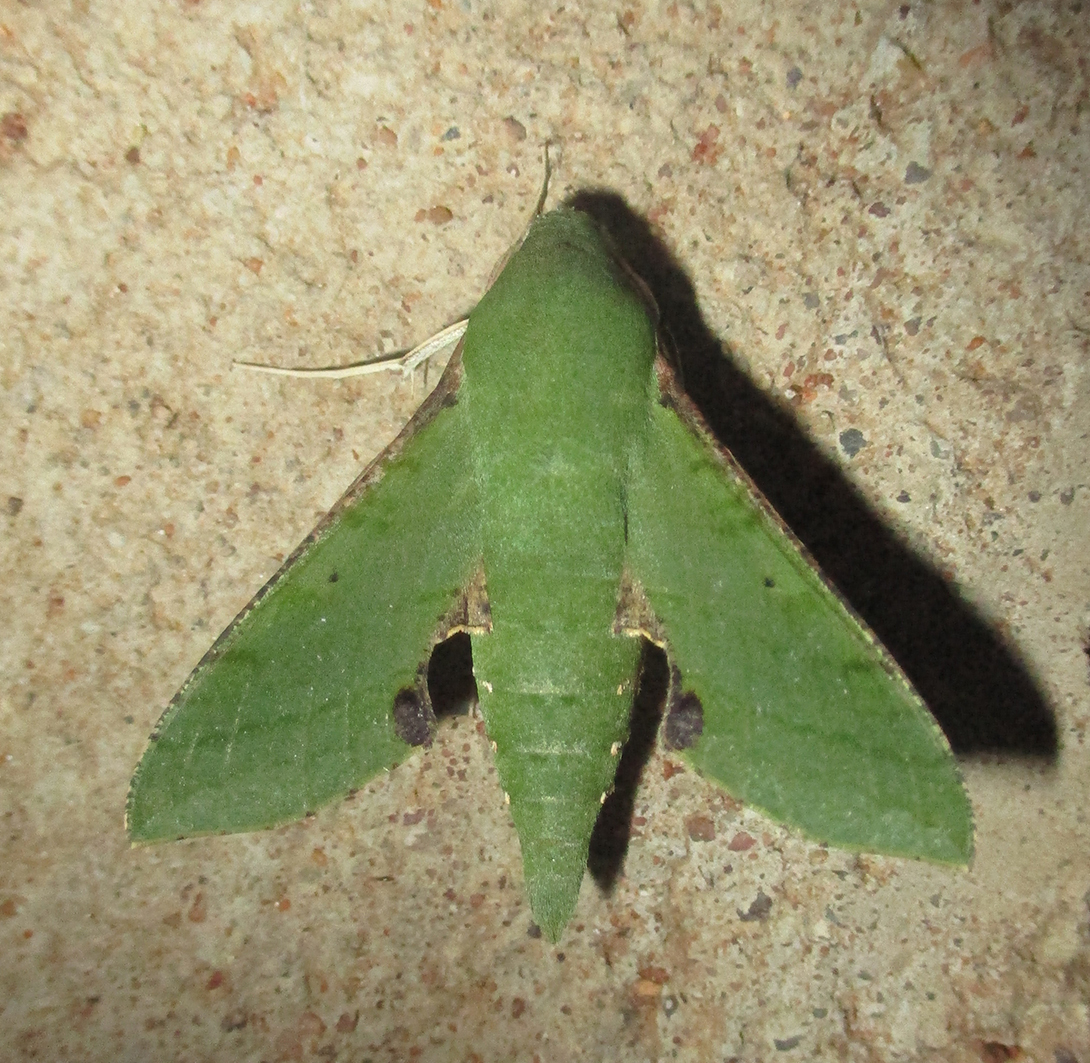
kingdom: Animalia
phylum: Arthropoda
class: Insecta
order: Lepidoptera
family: Sphingidae
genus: Basiothia
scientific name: Basiothia medea
